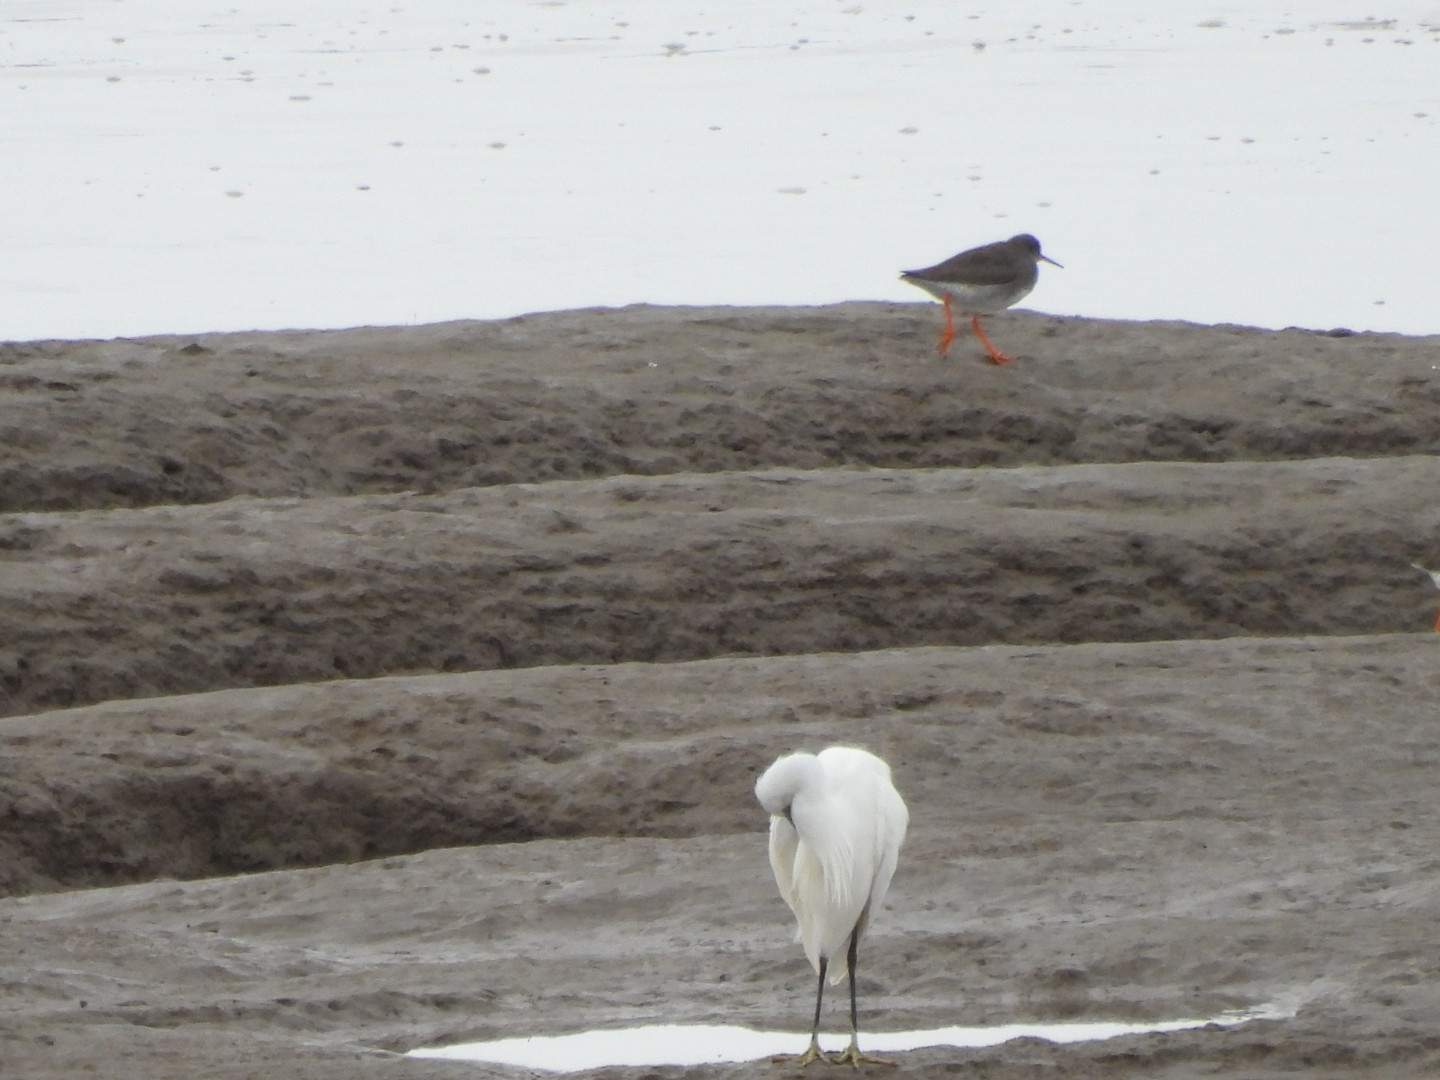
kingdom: Animalia
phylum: Chordata
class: Aves
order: Pelecaniformes
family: Ardeidae
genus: Egretta
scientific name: Egretta garzetta
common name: Little egret
